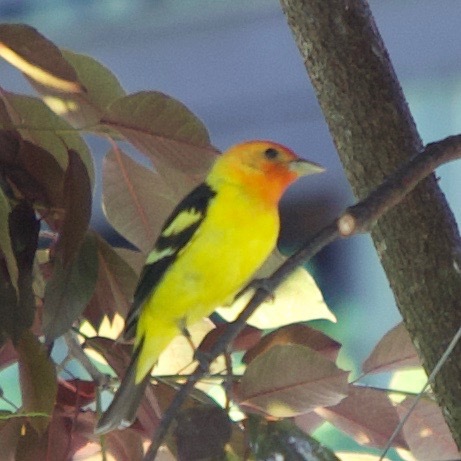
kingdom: Animalia
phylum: Chordata
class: Aves
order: Passeriformes
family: Cardinalidae
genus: Piranga
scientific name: Piranga ludoviciana
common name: Western tanager
